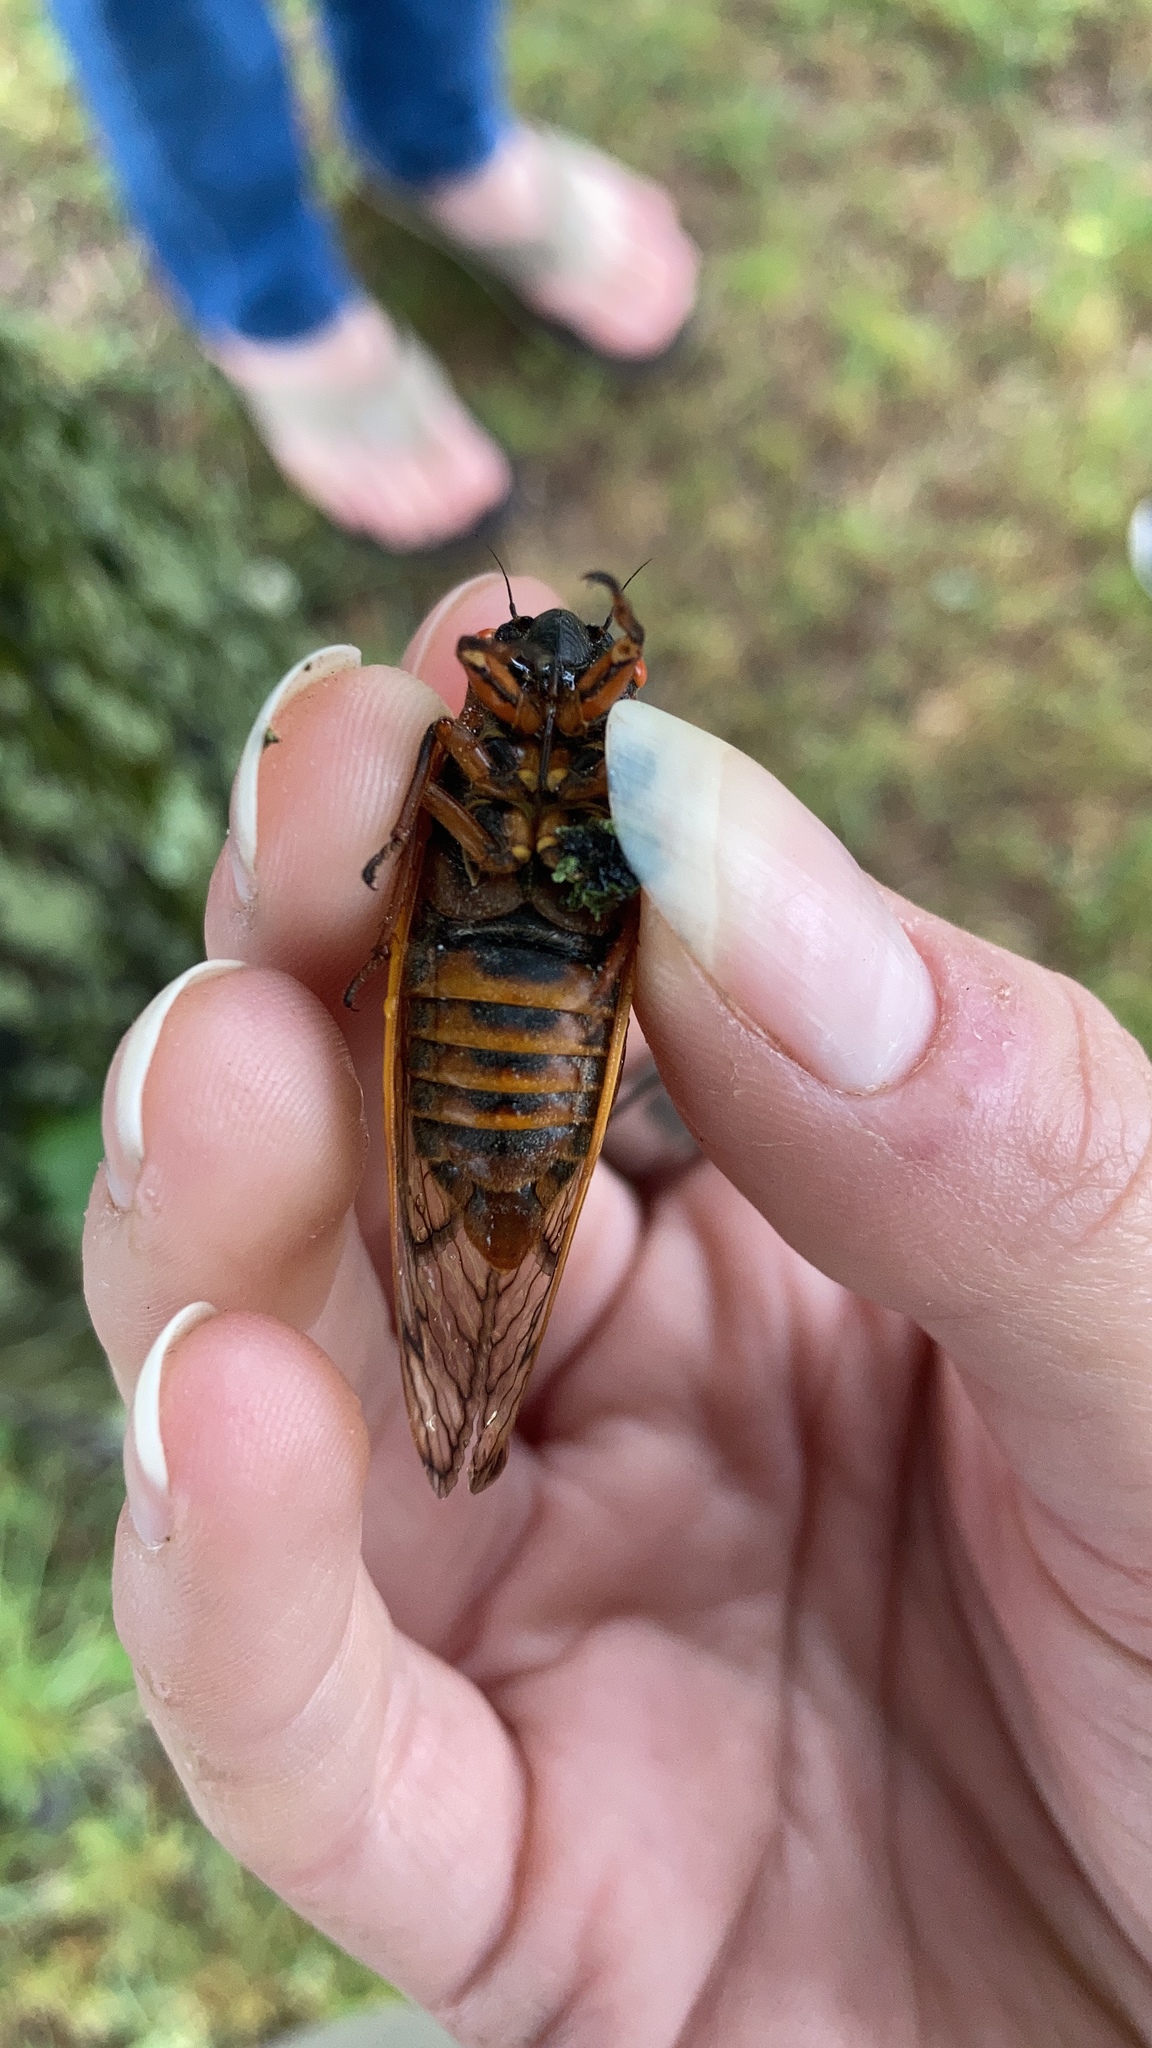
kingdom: Animalia
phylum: Arthropoda
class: Insecta
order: Hemiptera
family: Cicadidae
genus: Magicicada
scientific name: Magicicada septendecim
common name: Periodical cicada
